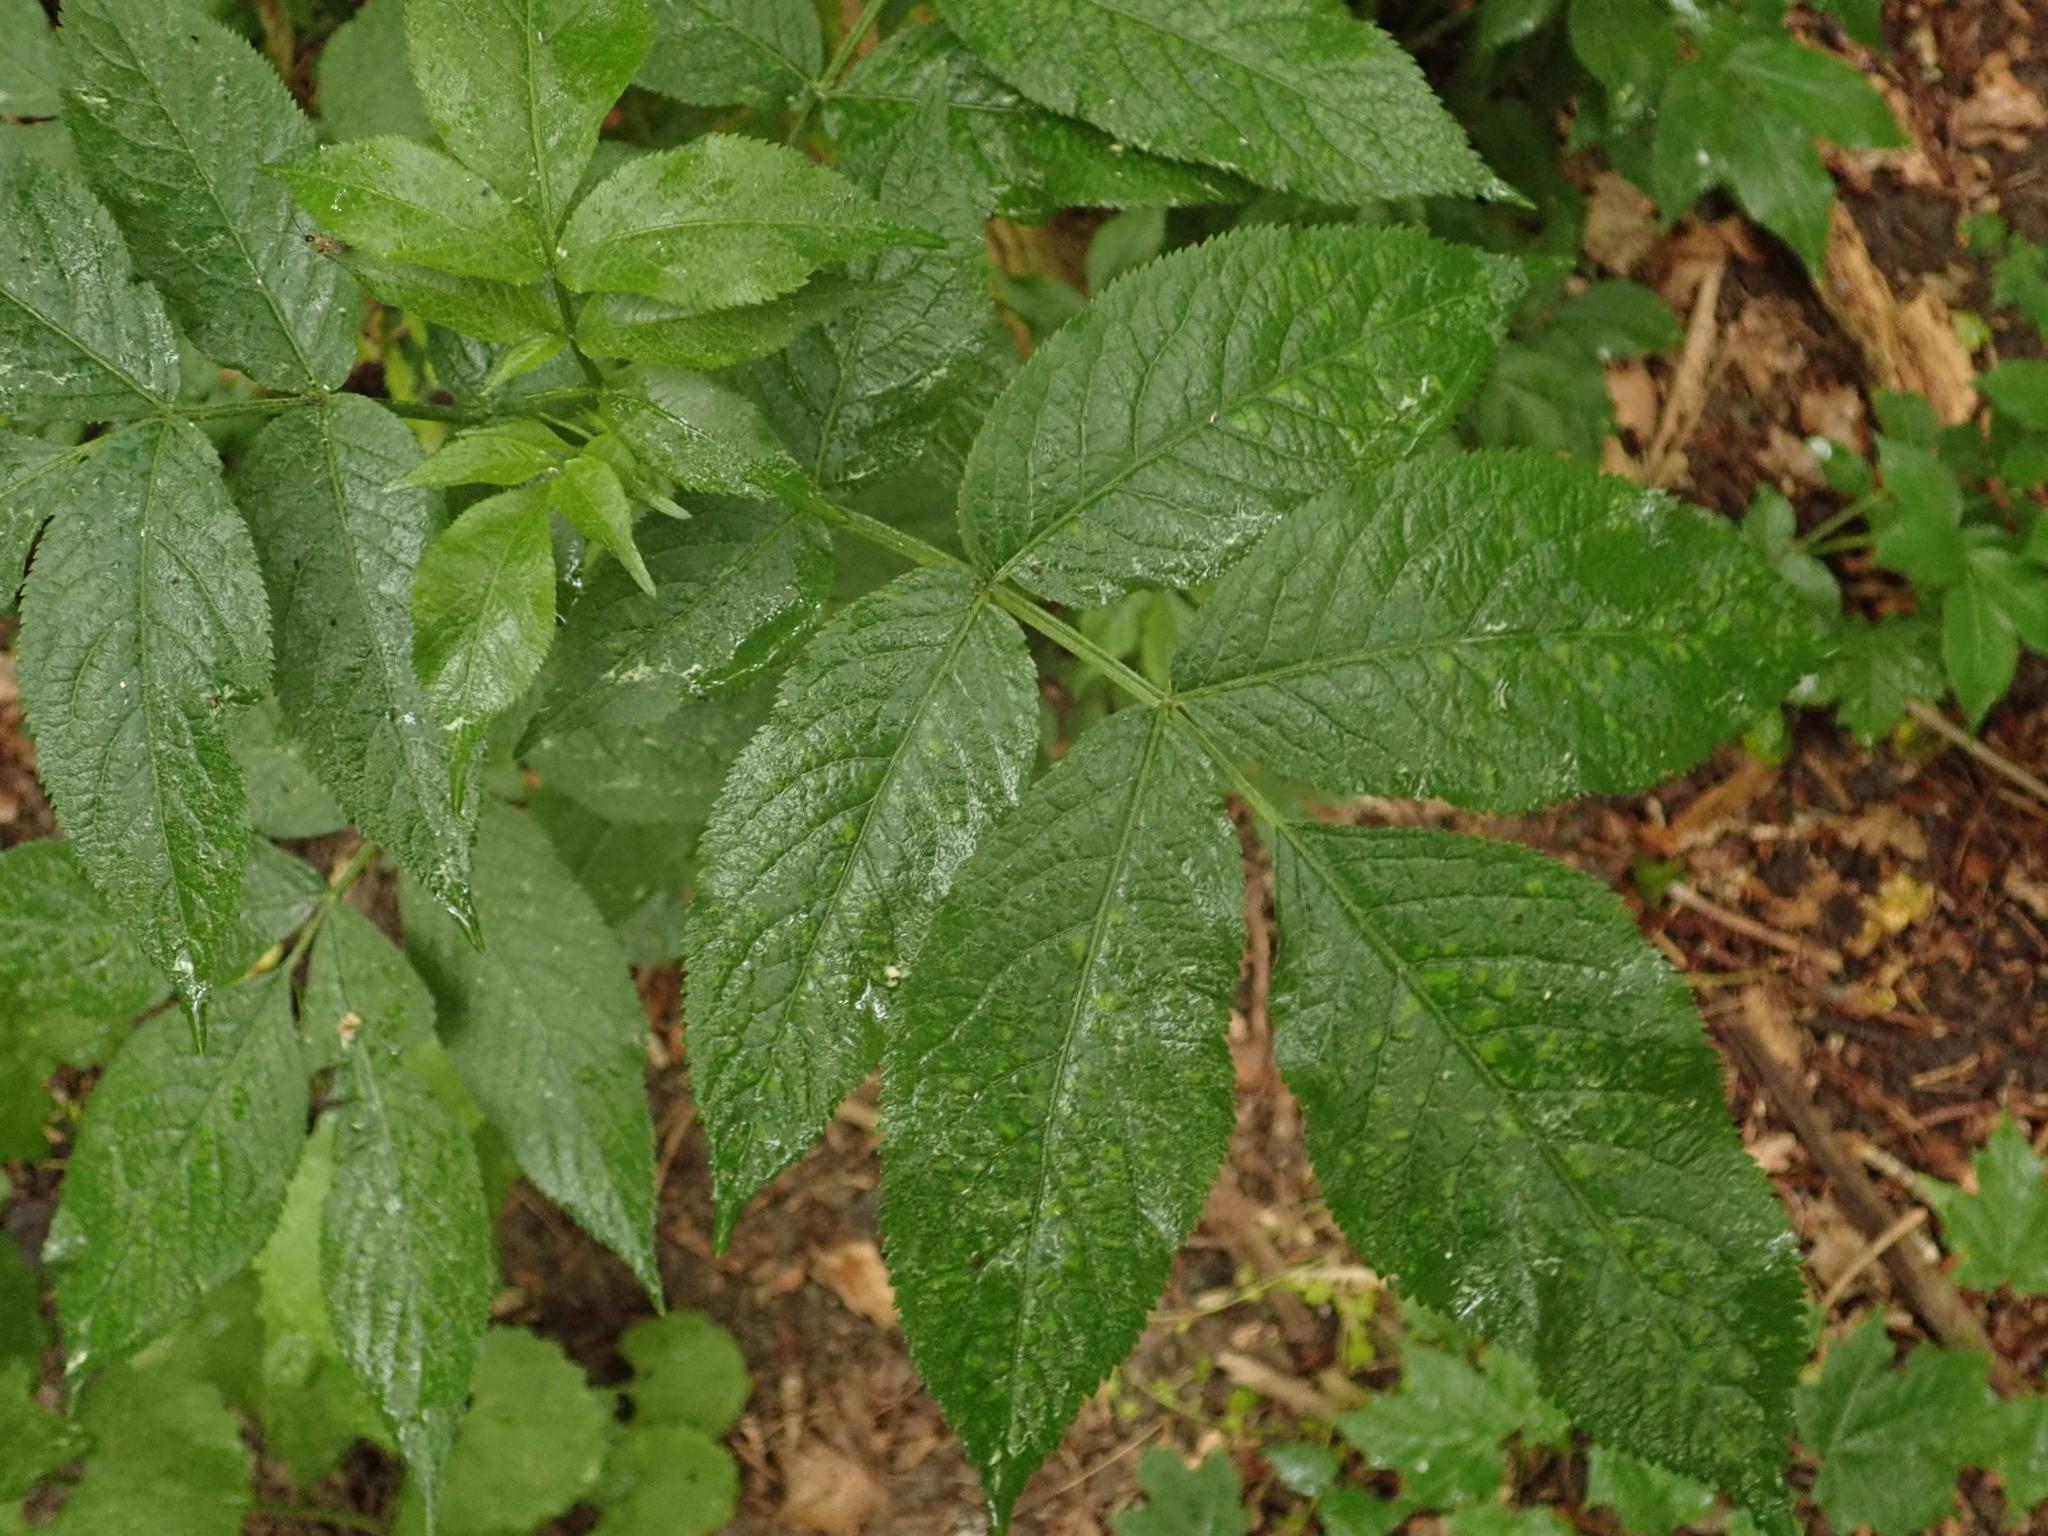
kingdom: Plantae
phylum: Tracheophyta
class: Magnoliopsida
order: Dipsacales
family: Viburnaceae
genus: Sambucus
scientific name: Sambucus racemosa
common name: Red-berried elder
